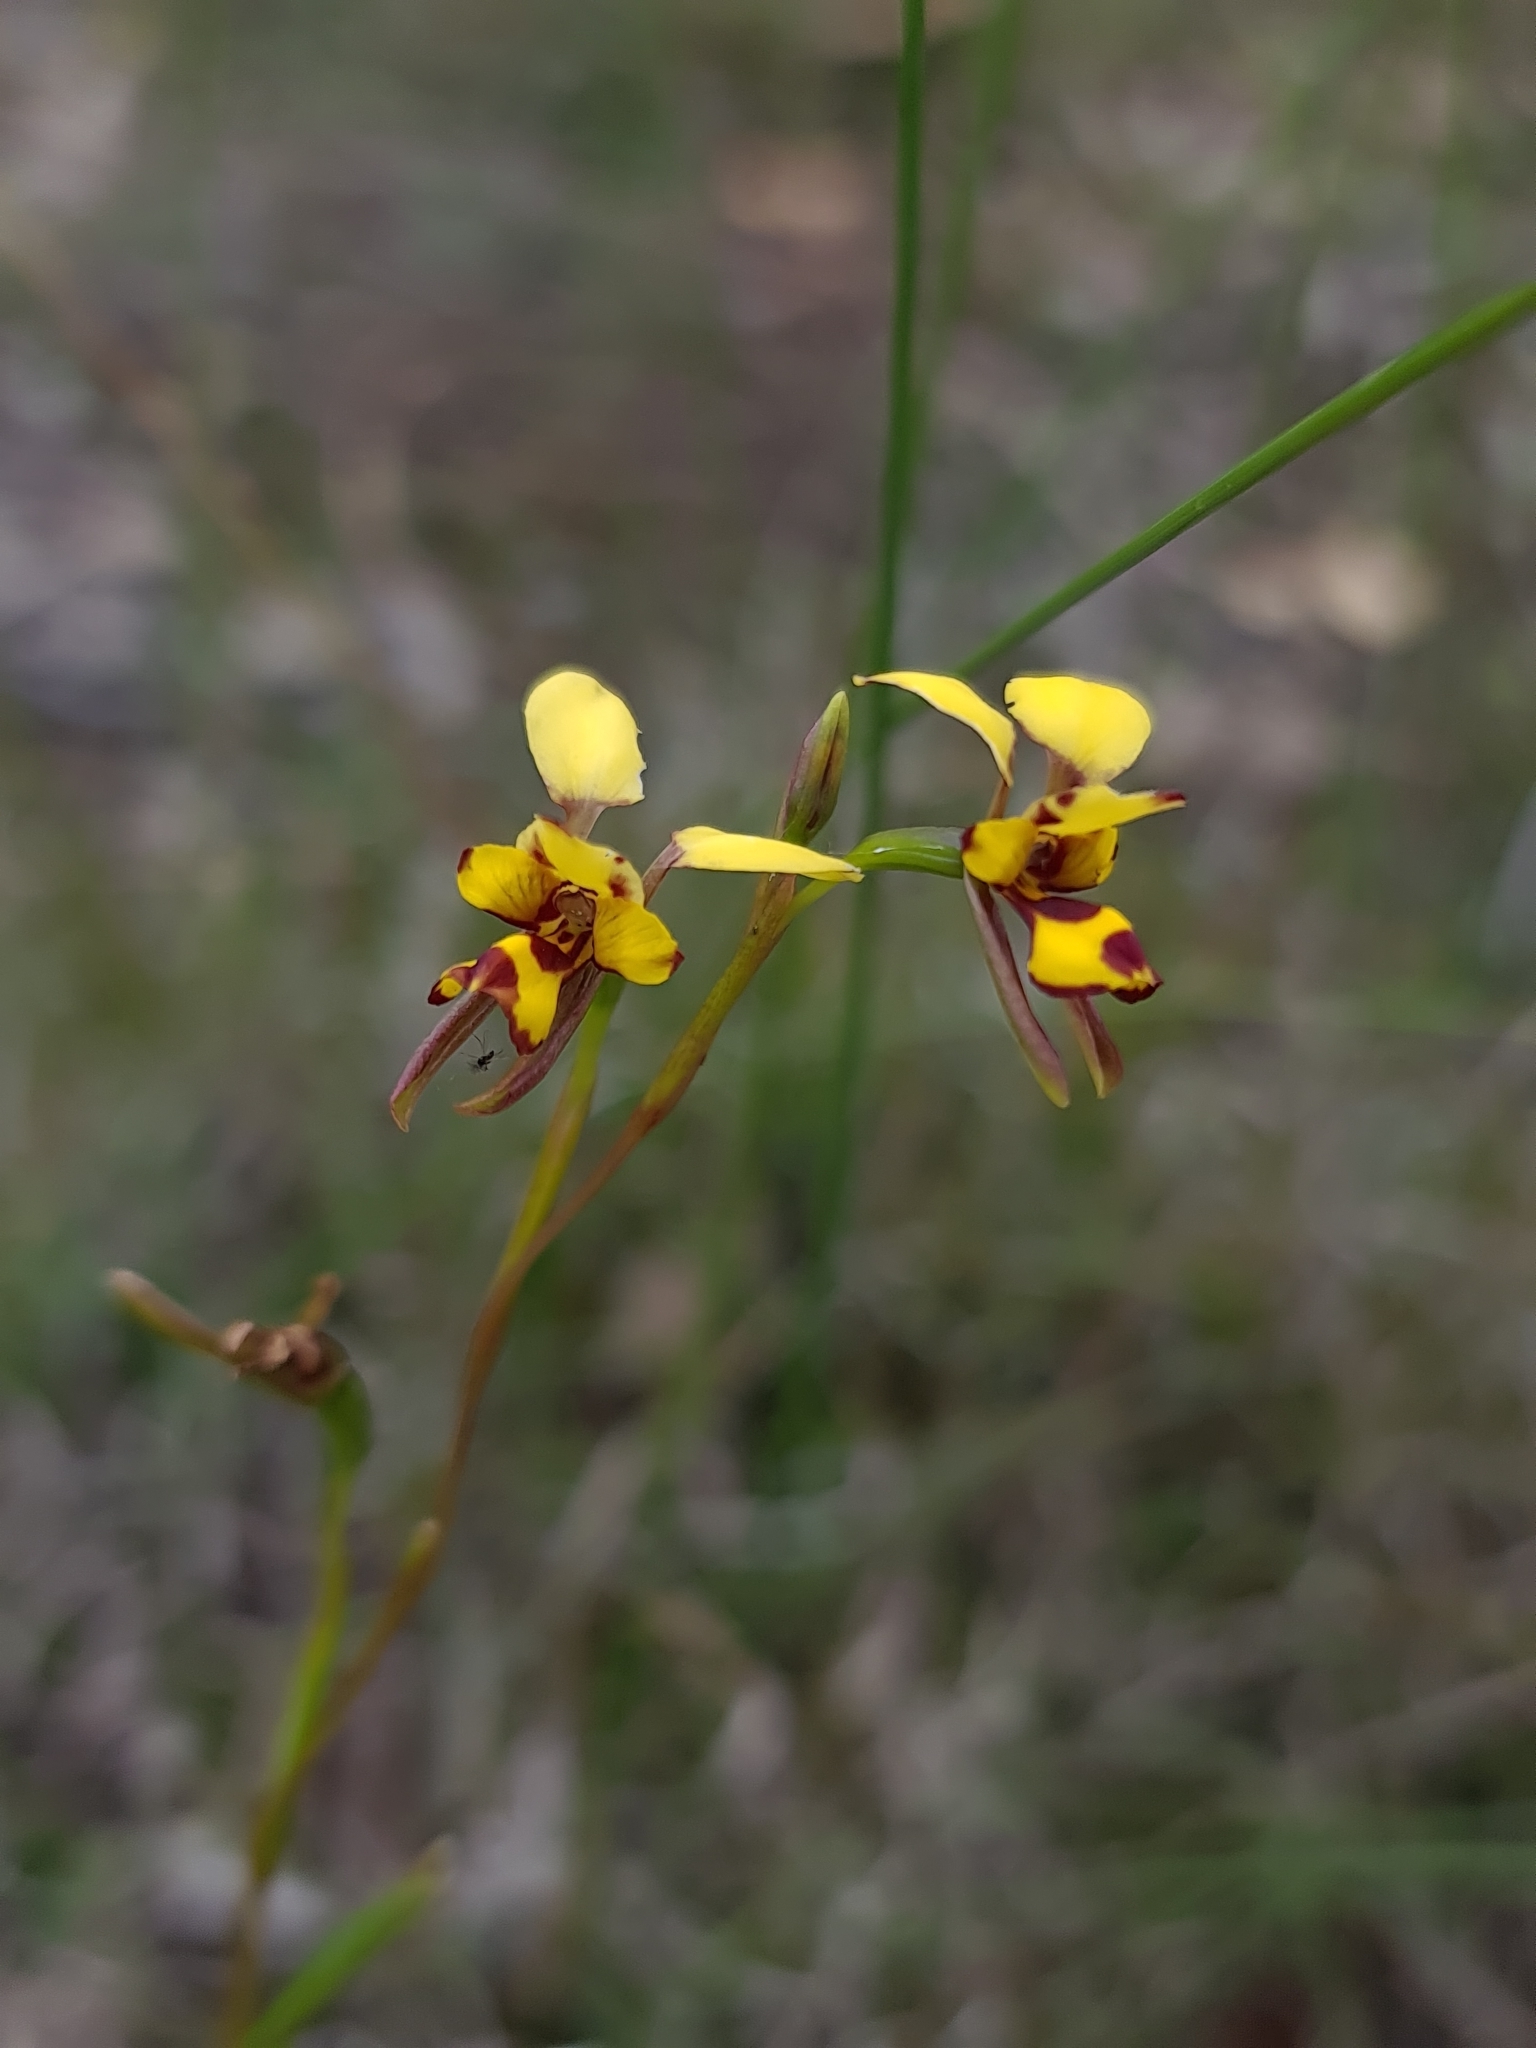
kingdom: Plantae
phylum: Tracheophyta
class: Liliopsida
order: Asparagales
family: Orchidaceae
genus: Diuris
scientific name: Diuris laxiflora
